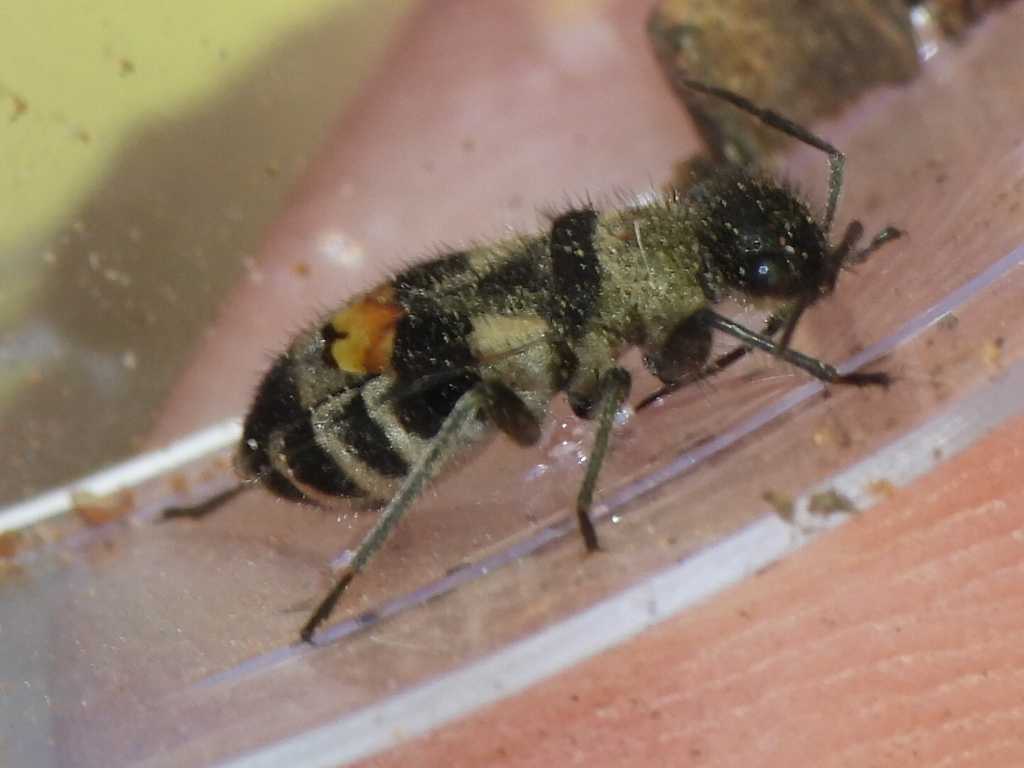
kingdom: Animalia
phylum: Arthropoda
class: Insecta
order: Hemiptera
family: Largidae
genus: Arhaphe
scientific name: Arhaphe carolina
